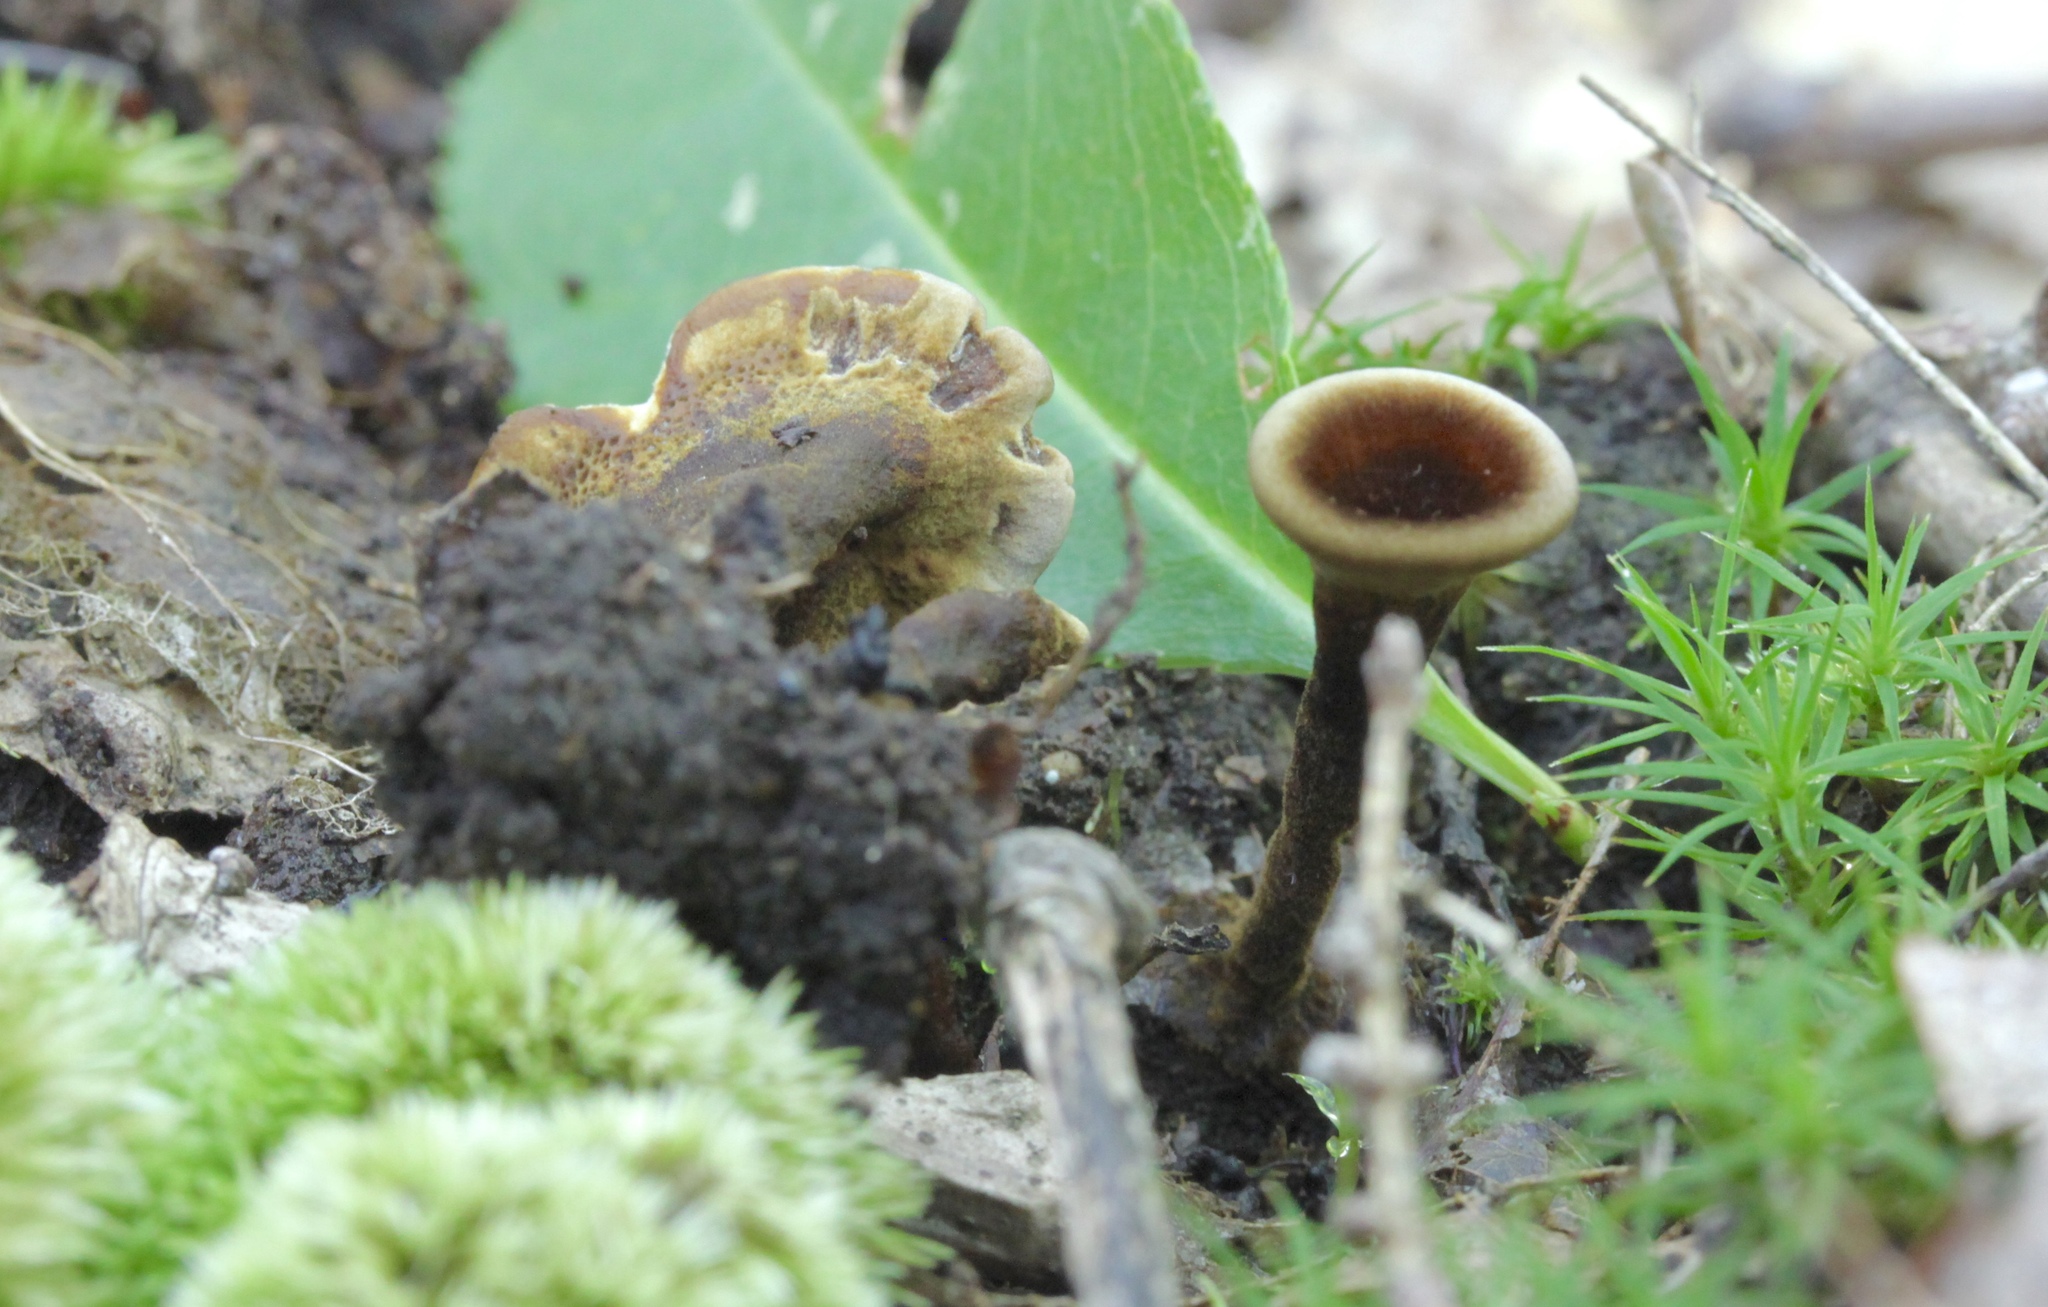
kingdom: Fungi
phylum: Basidiomycota
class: Agaricomycetes
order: Thelephorales
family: Bankeraceae
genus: Hydnellum
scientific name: Hydnellum concrescens
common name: Zoned tooth
